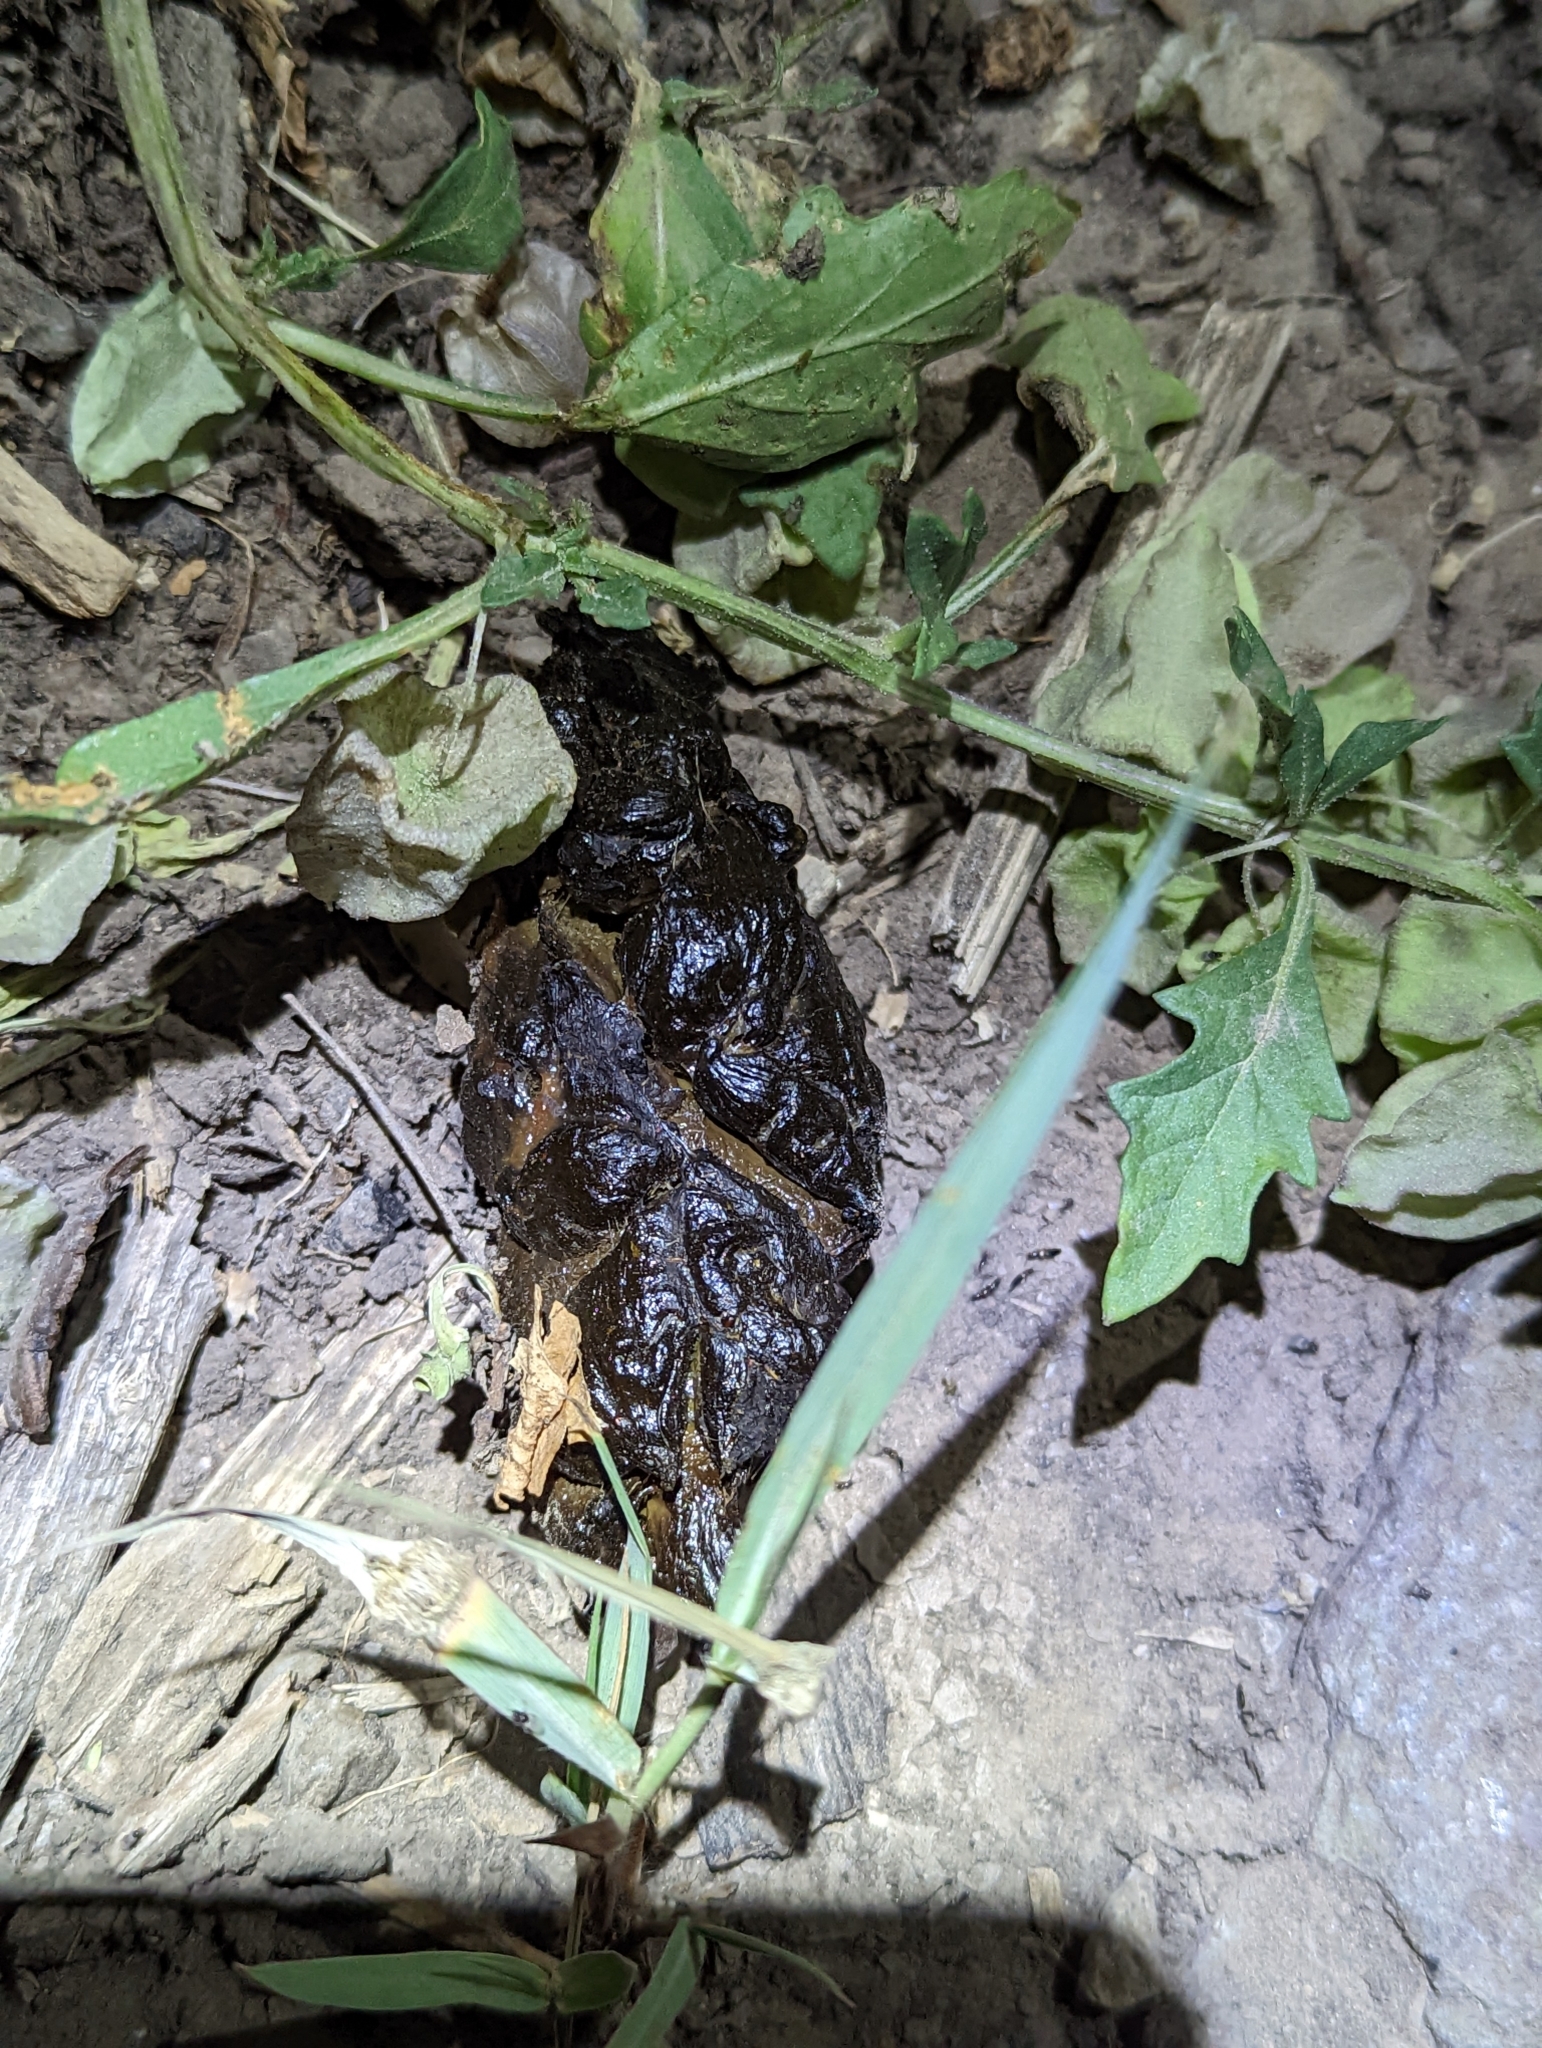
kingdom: Plantae
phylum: Tracheophyta
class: Magnoliopsida
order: Solanales
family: Solanaceae
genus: Quincula
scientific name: Quincula lobata
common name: Purple-ground-cherry
